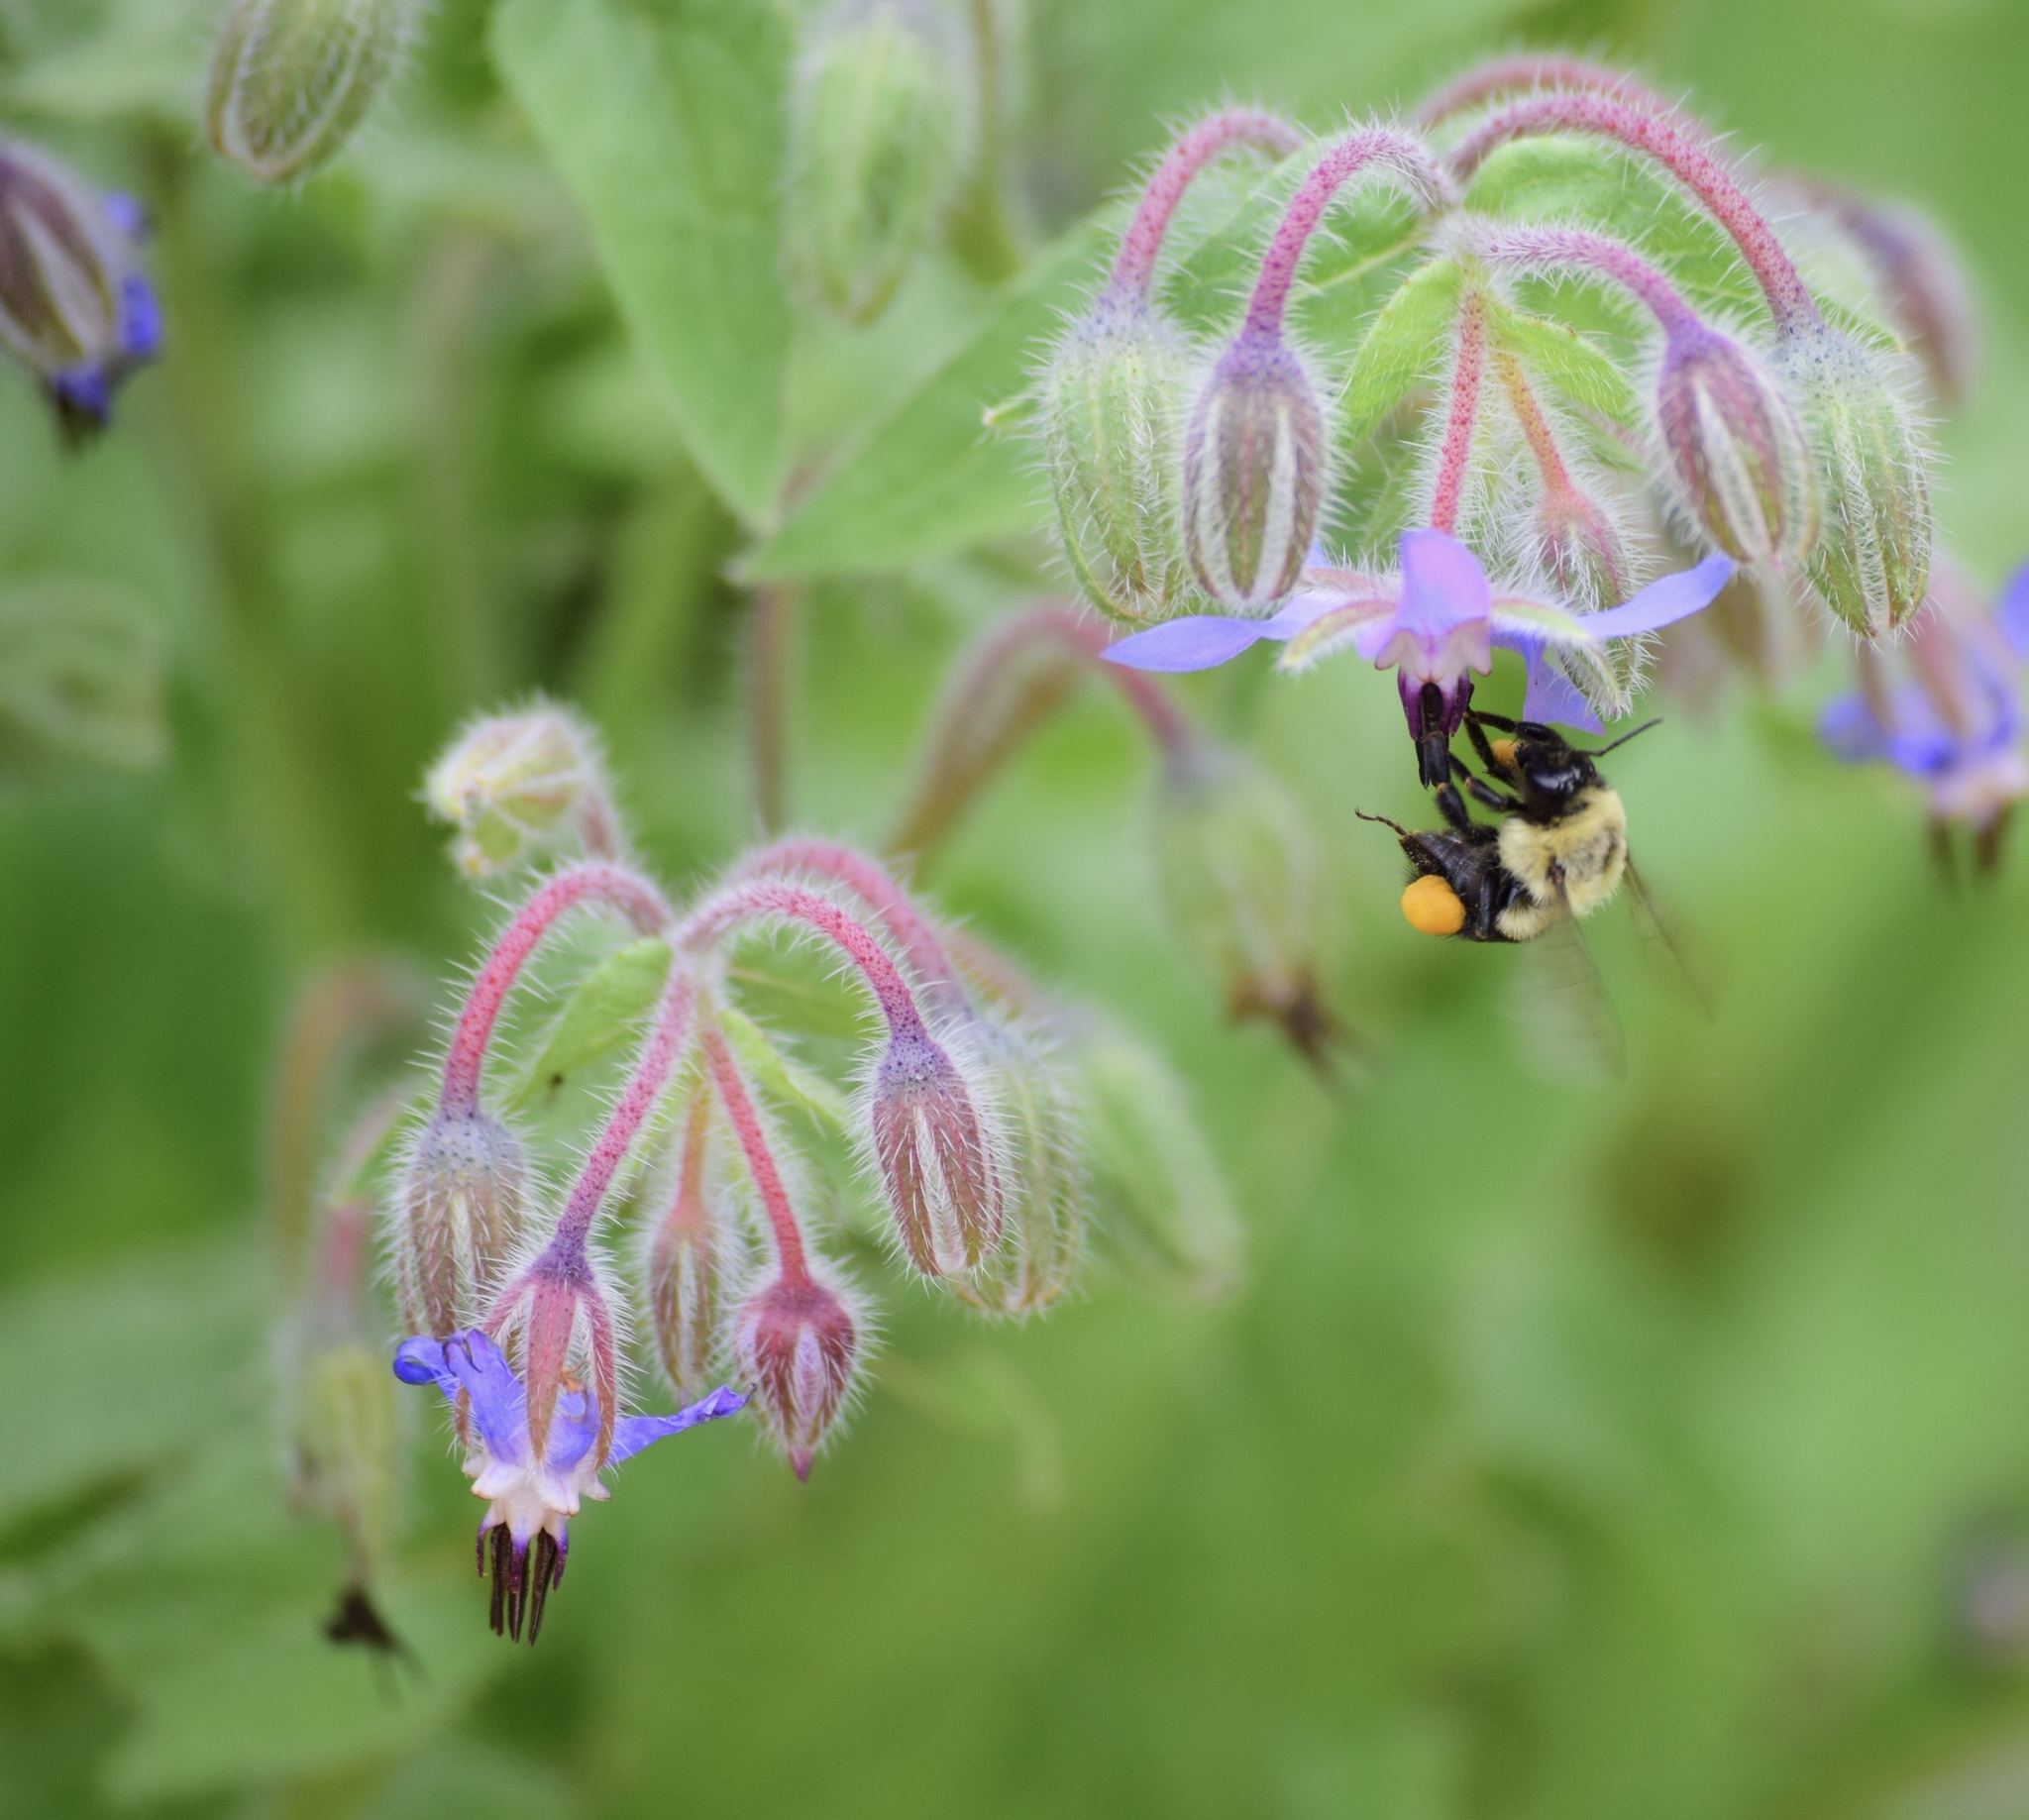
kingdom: Animalia
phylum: Arthropoda
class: Insecta
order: Hymenoptera
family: Apidae
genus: Bombus
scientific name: Bombus impatiens
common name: Common eastern bumble bee
